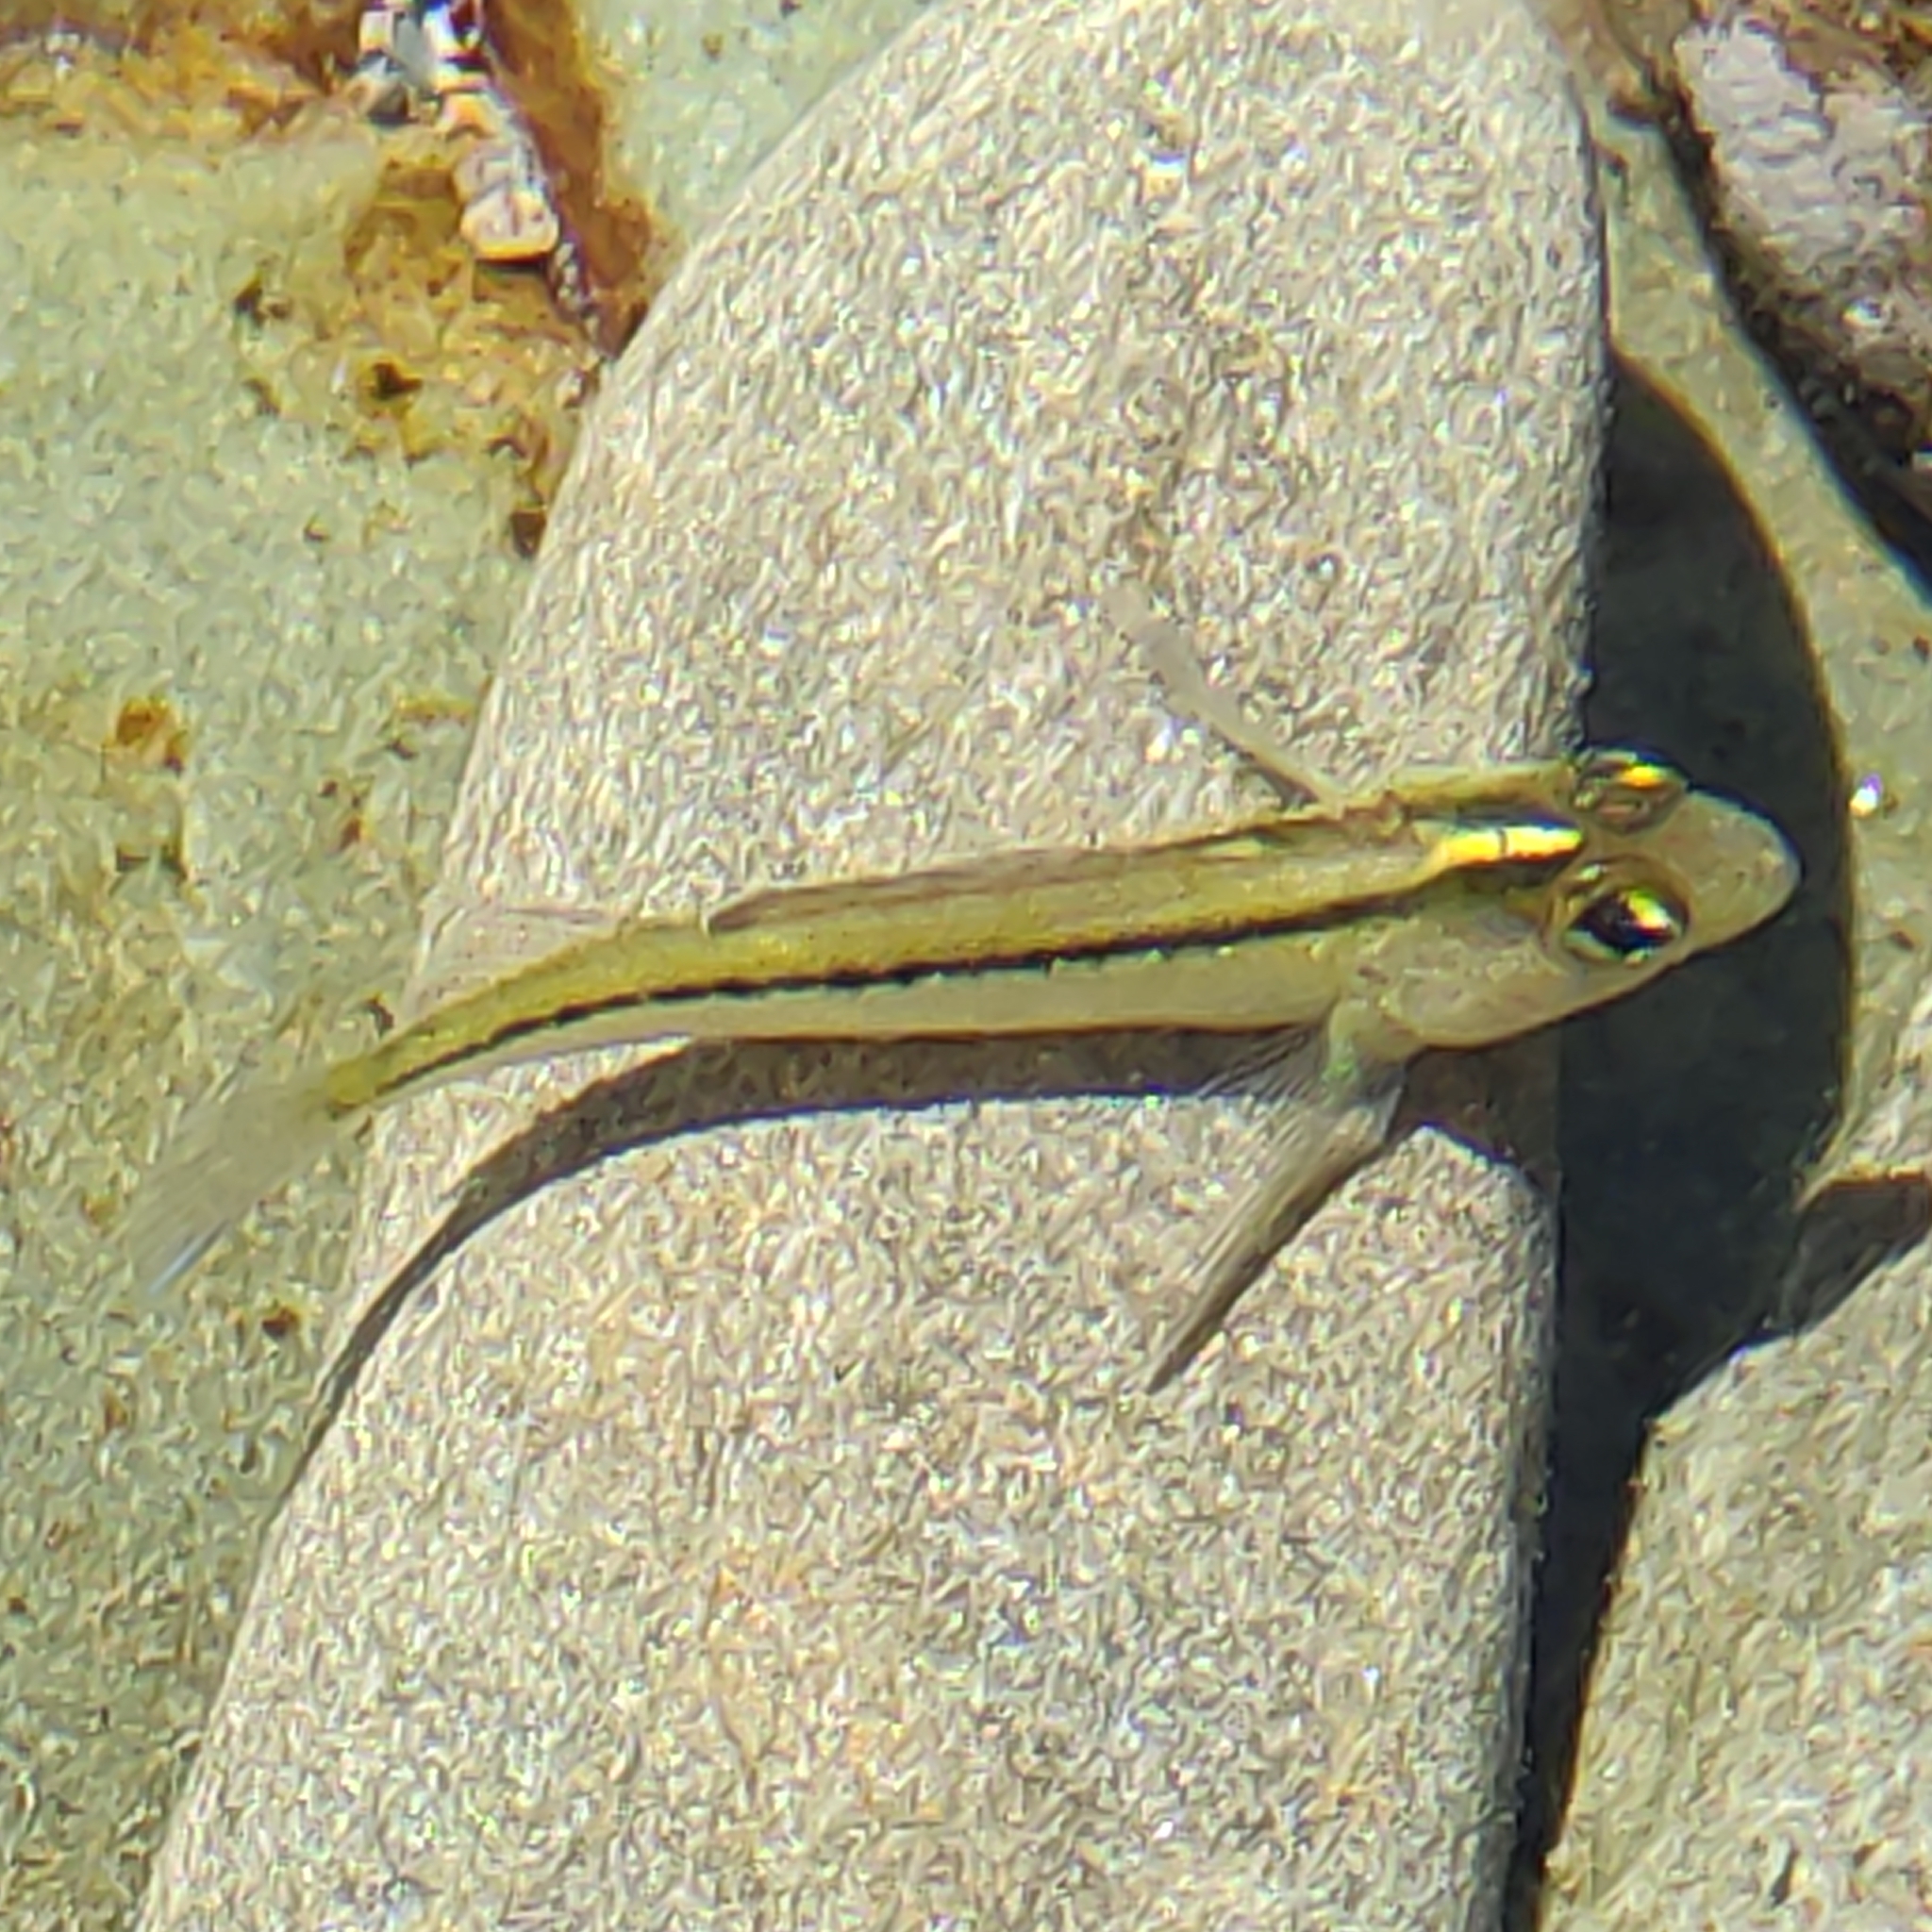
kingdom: Animalia
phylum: Chordata
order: Perciformes
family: Tripterygiidae
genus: Forsterygion
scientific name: Forsterygion lapillum
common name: Common triplefin
